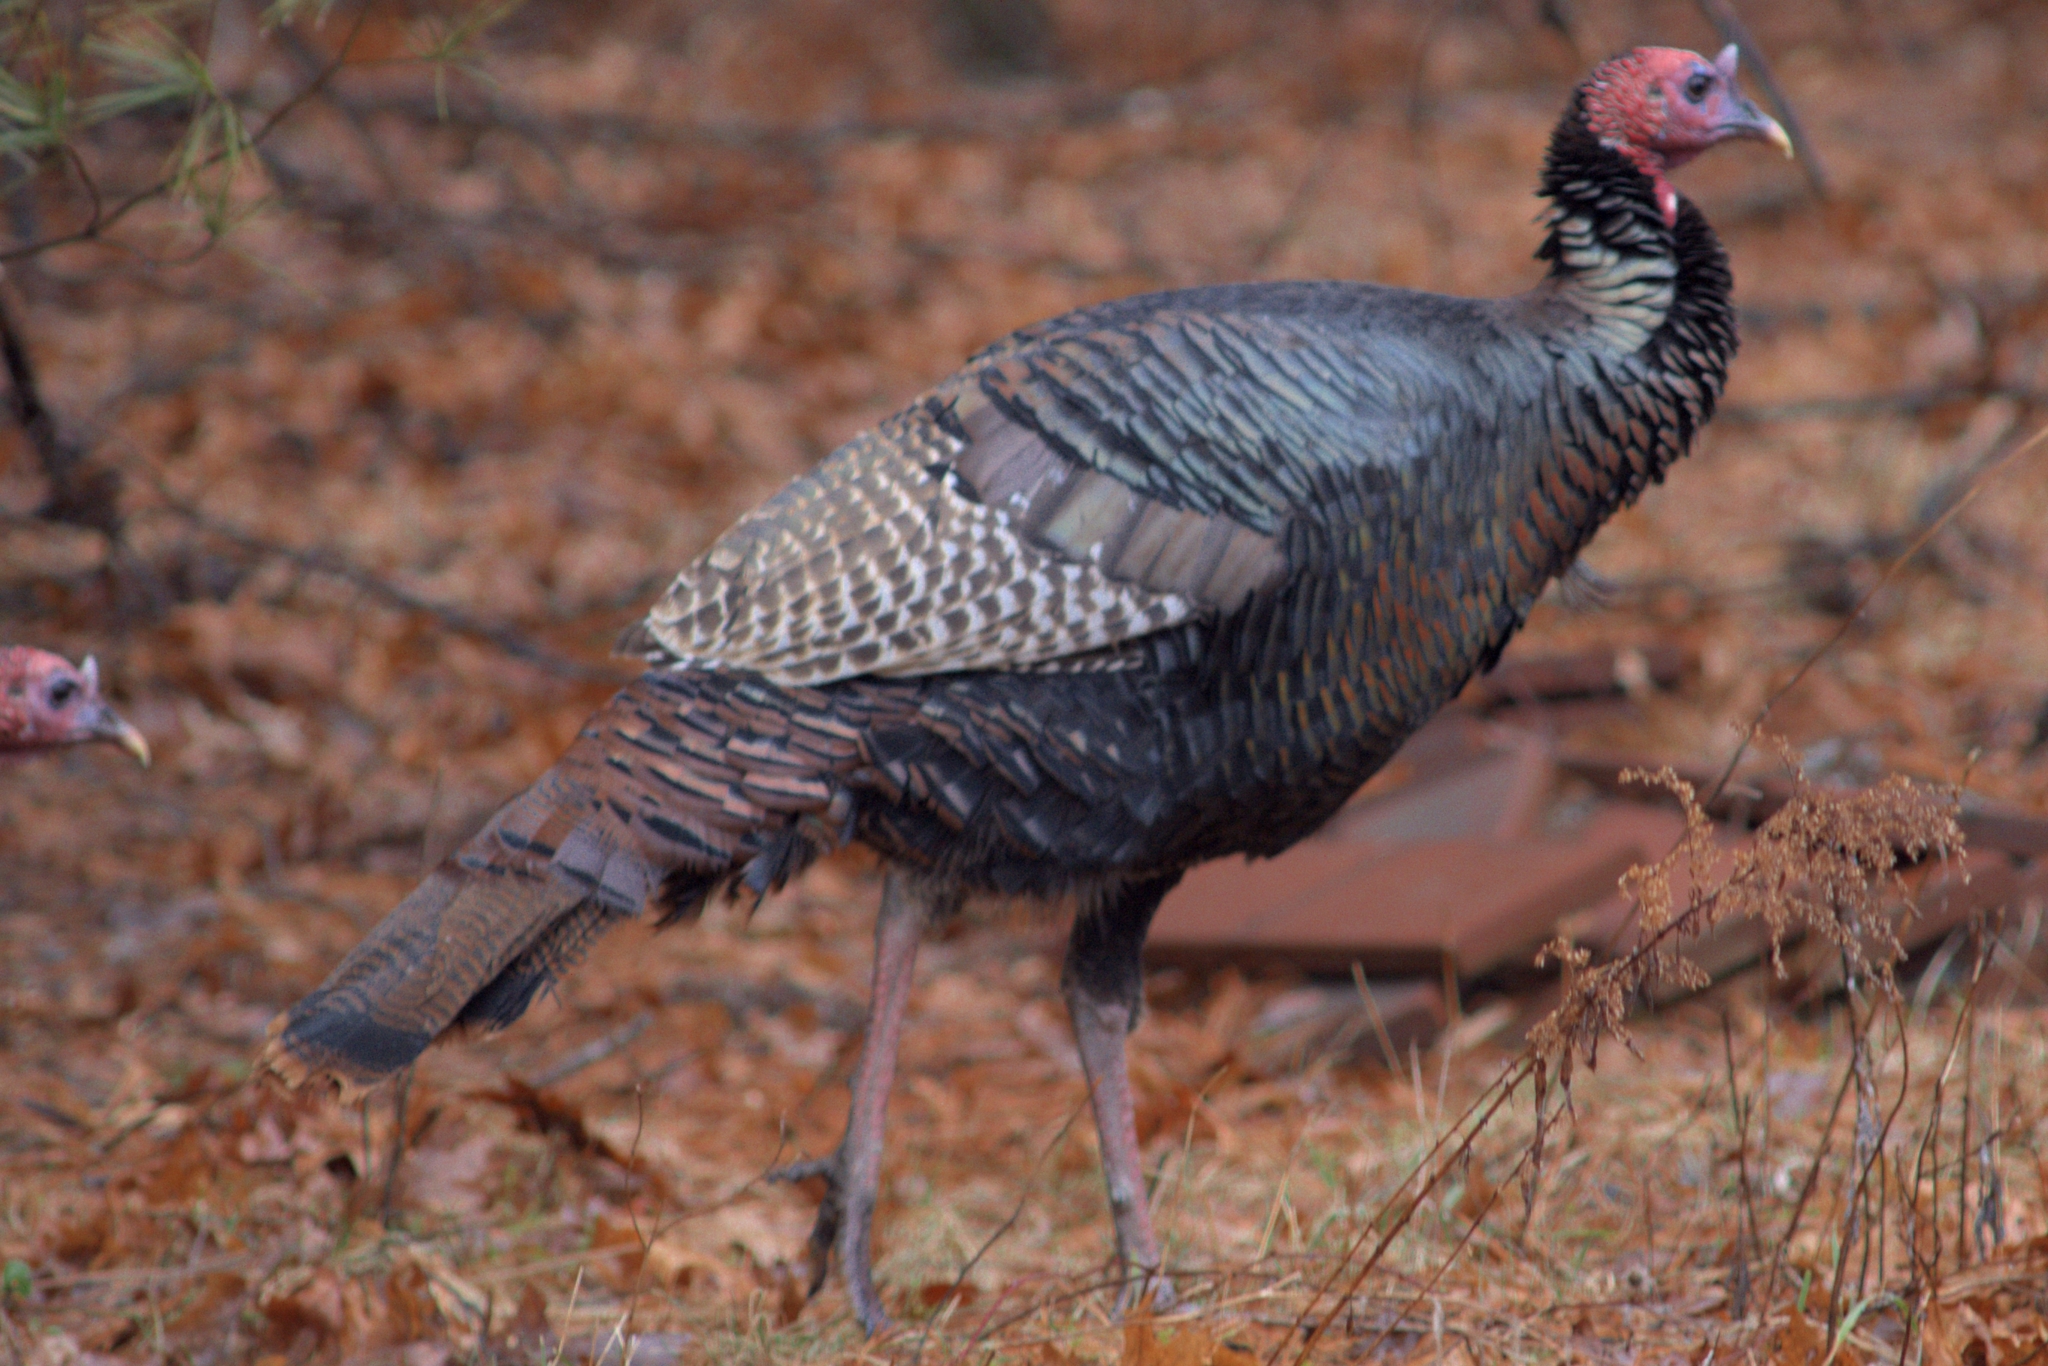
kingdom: Animalia
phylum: Chordata
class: Aves
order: Galliformes
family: Phasianidae
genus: Meleagris
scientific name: Meleagris gallopavo
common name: Wild turkey
